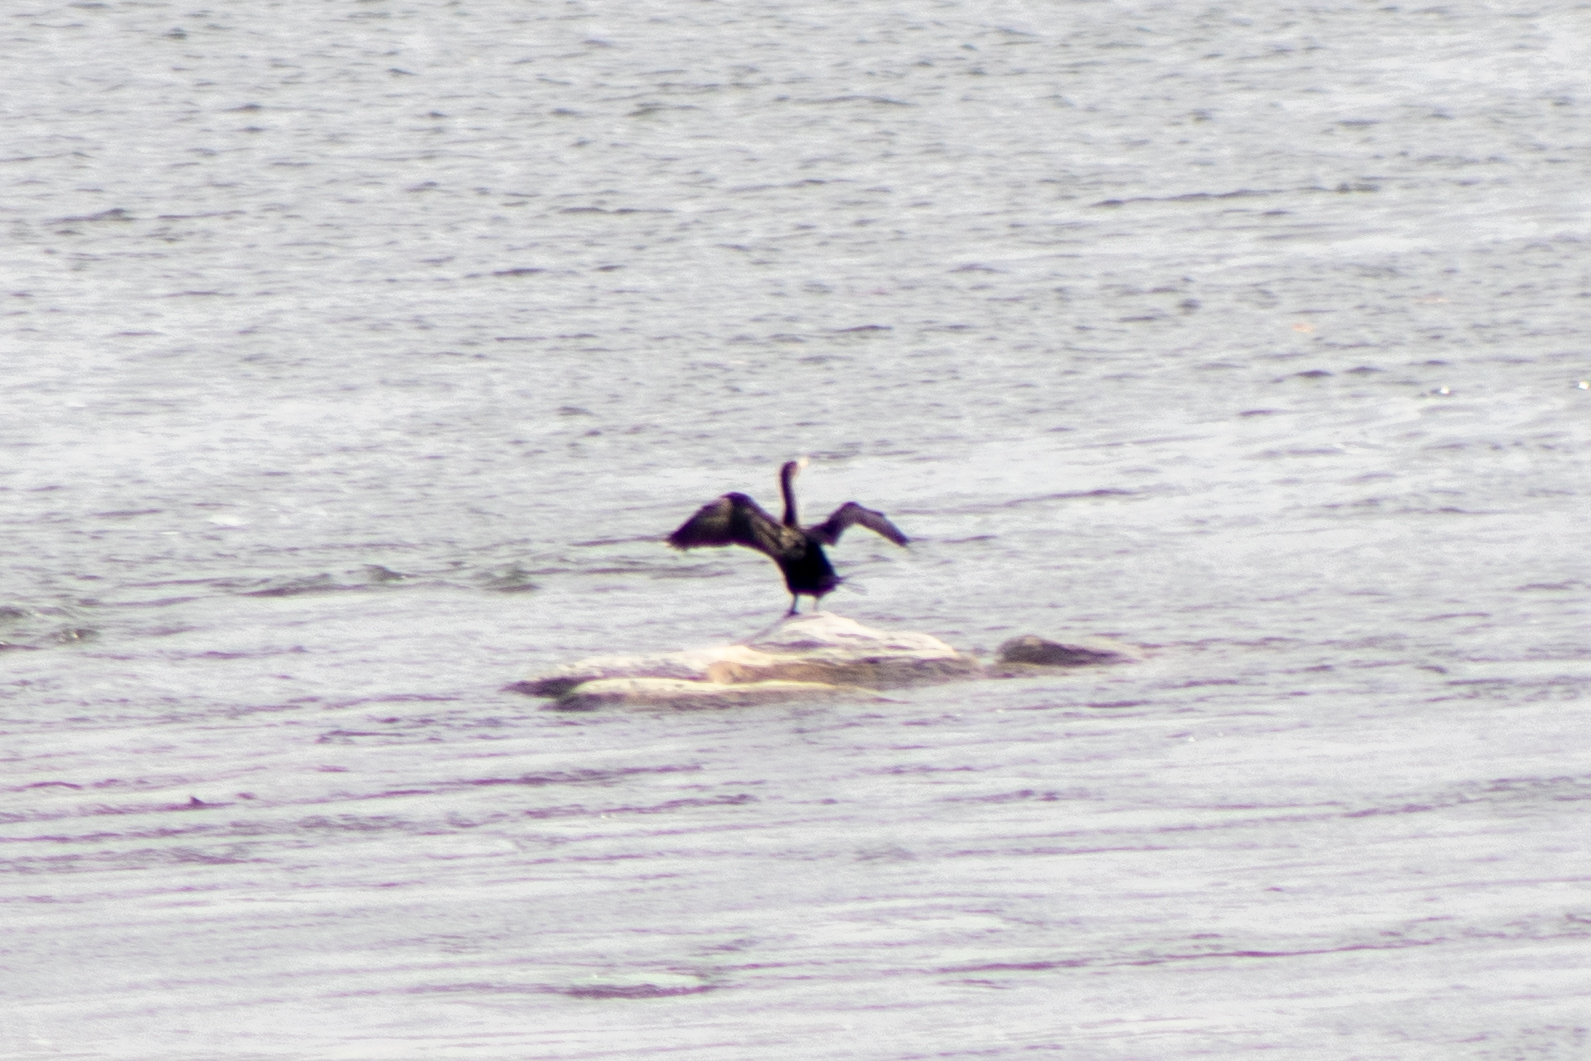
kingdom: Animalia
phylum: Chordata
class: Aves
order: Suliformes
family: Phalacrocoracidae
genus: Phalacrocorax
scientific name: Phalacrocorax auritus
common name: Double-crested cormorant
